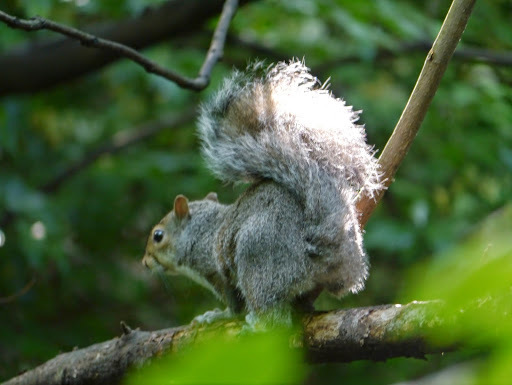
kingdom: Animalia
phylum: Chordata
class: Mammalia
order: Rodentia
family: Sciuridae
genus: Sciurus
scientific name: Sciurus carolinensis
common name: Eastern gray squirrel
